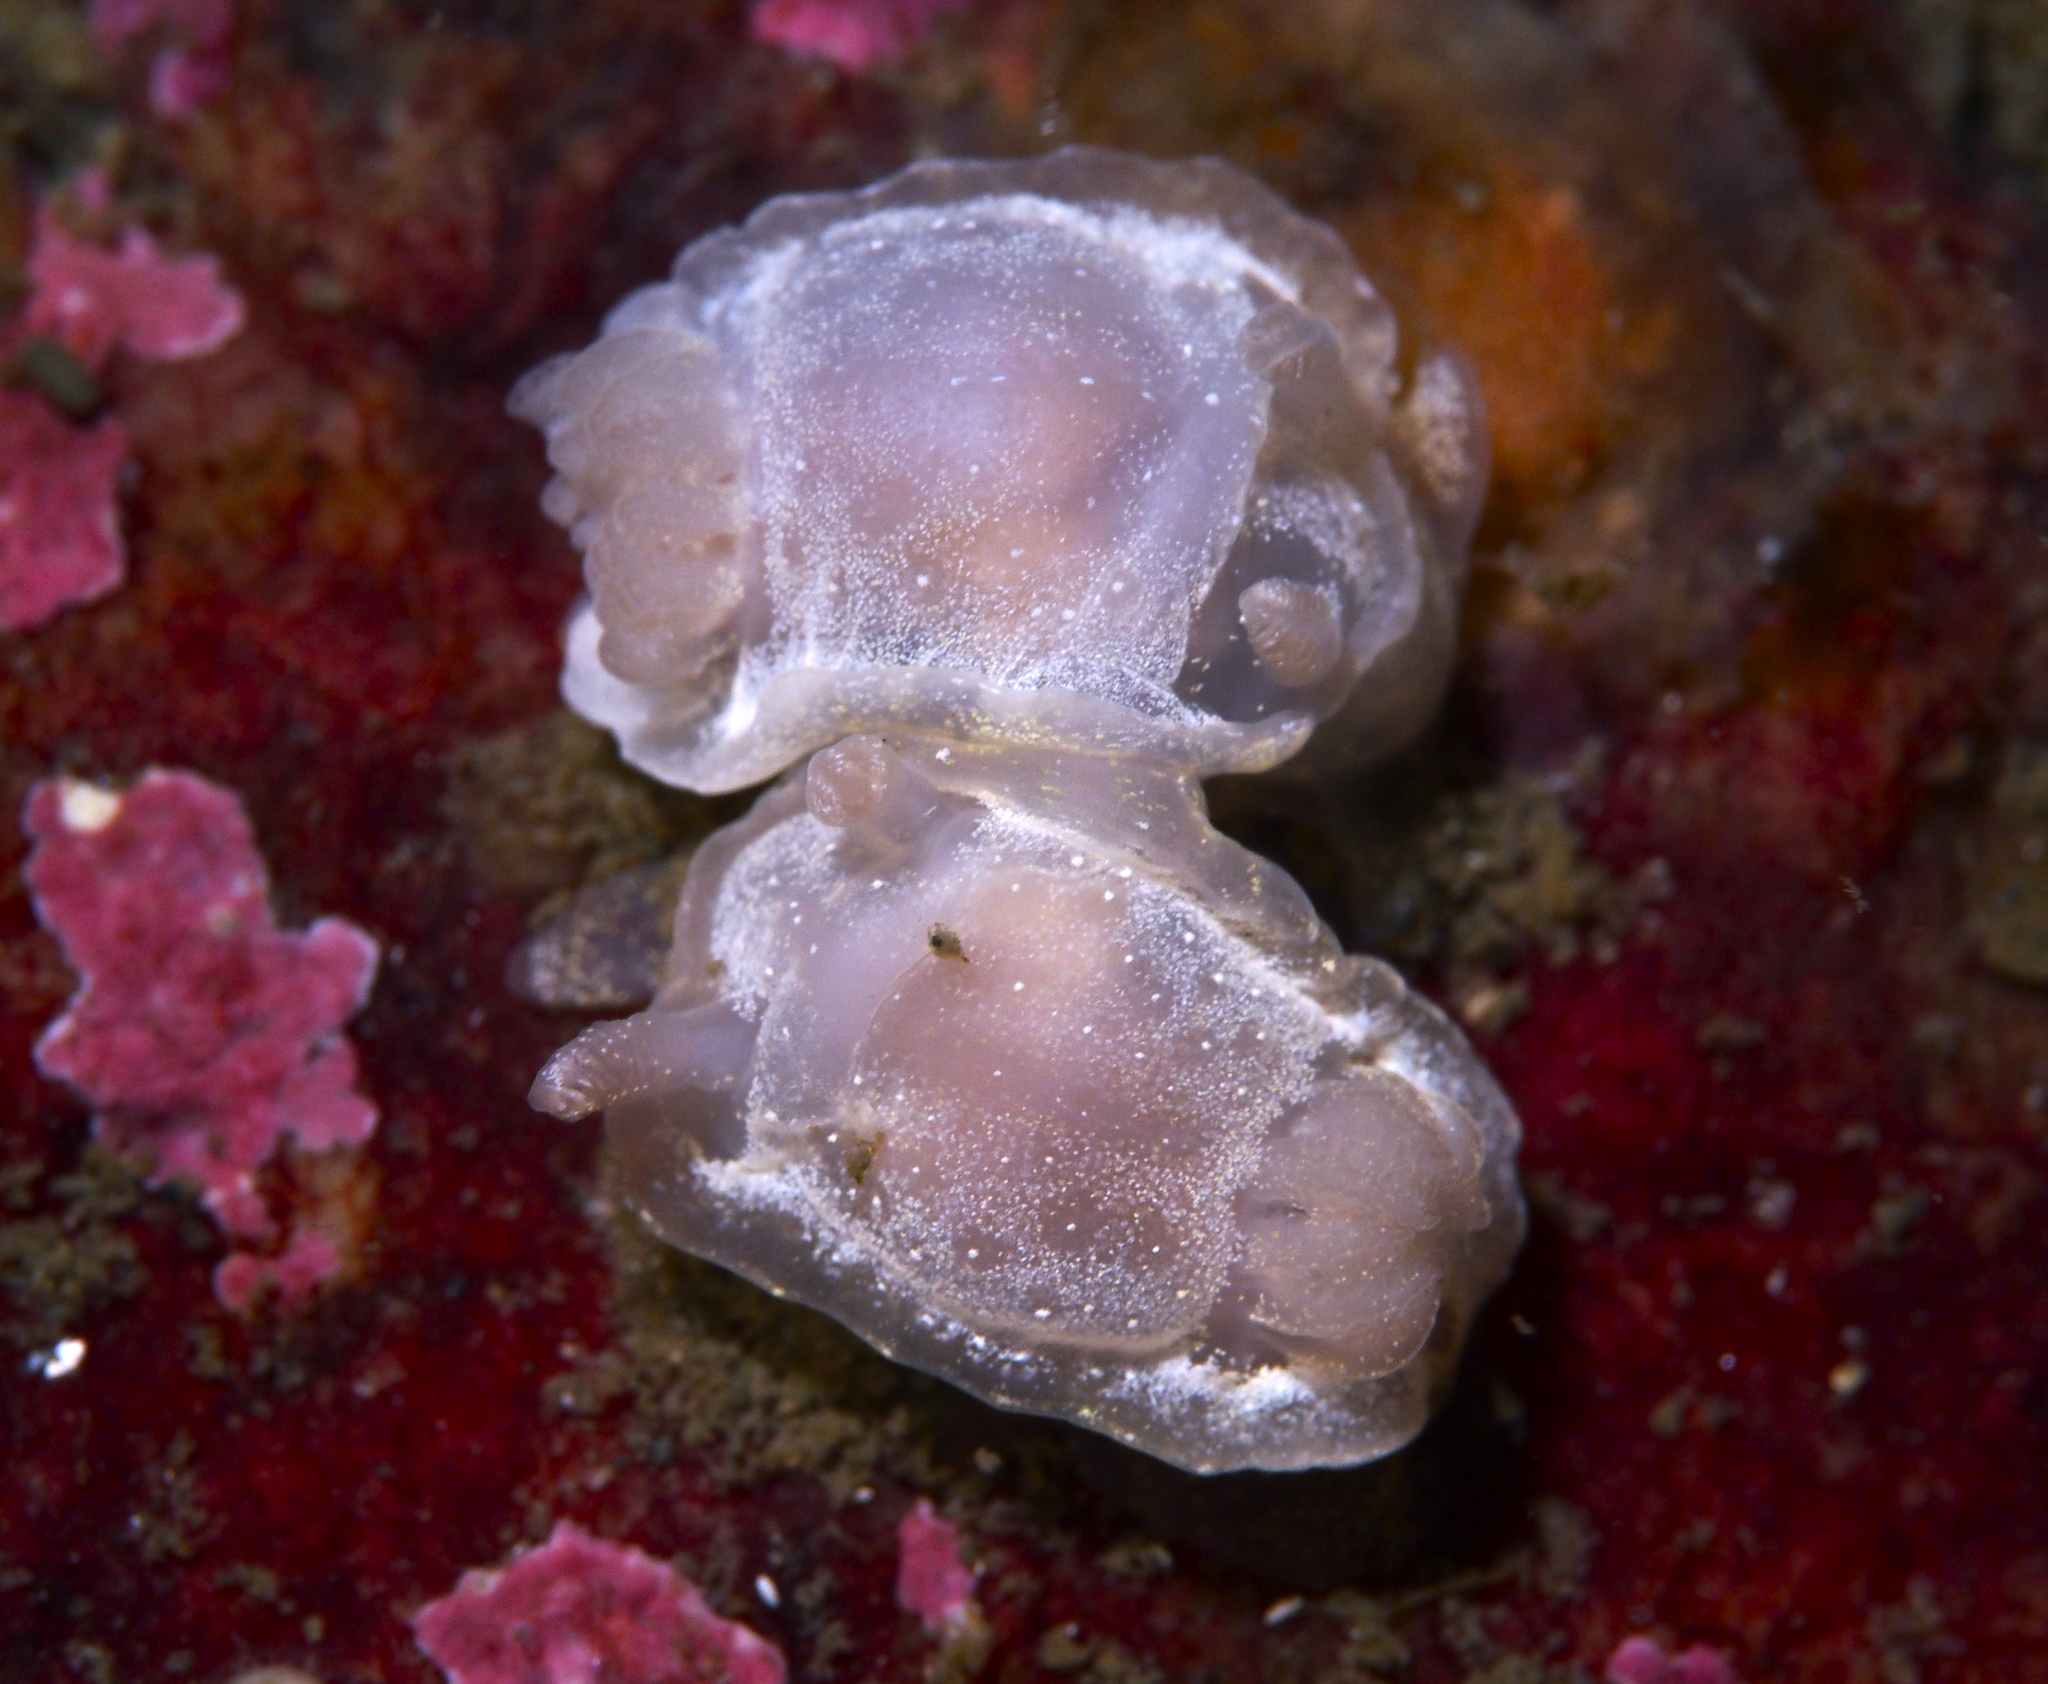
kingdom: Animalia
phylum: Mollusca
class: Gastropoda
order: Nudibranchia
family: Goniodorididae
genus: Okenia
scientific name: Okenia
